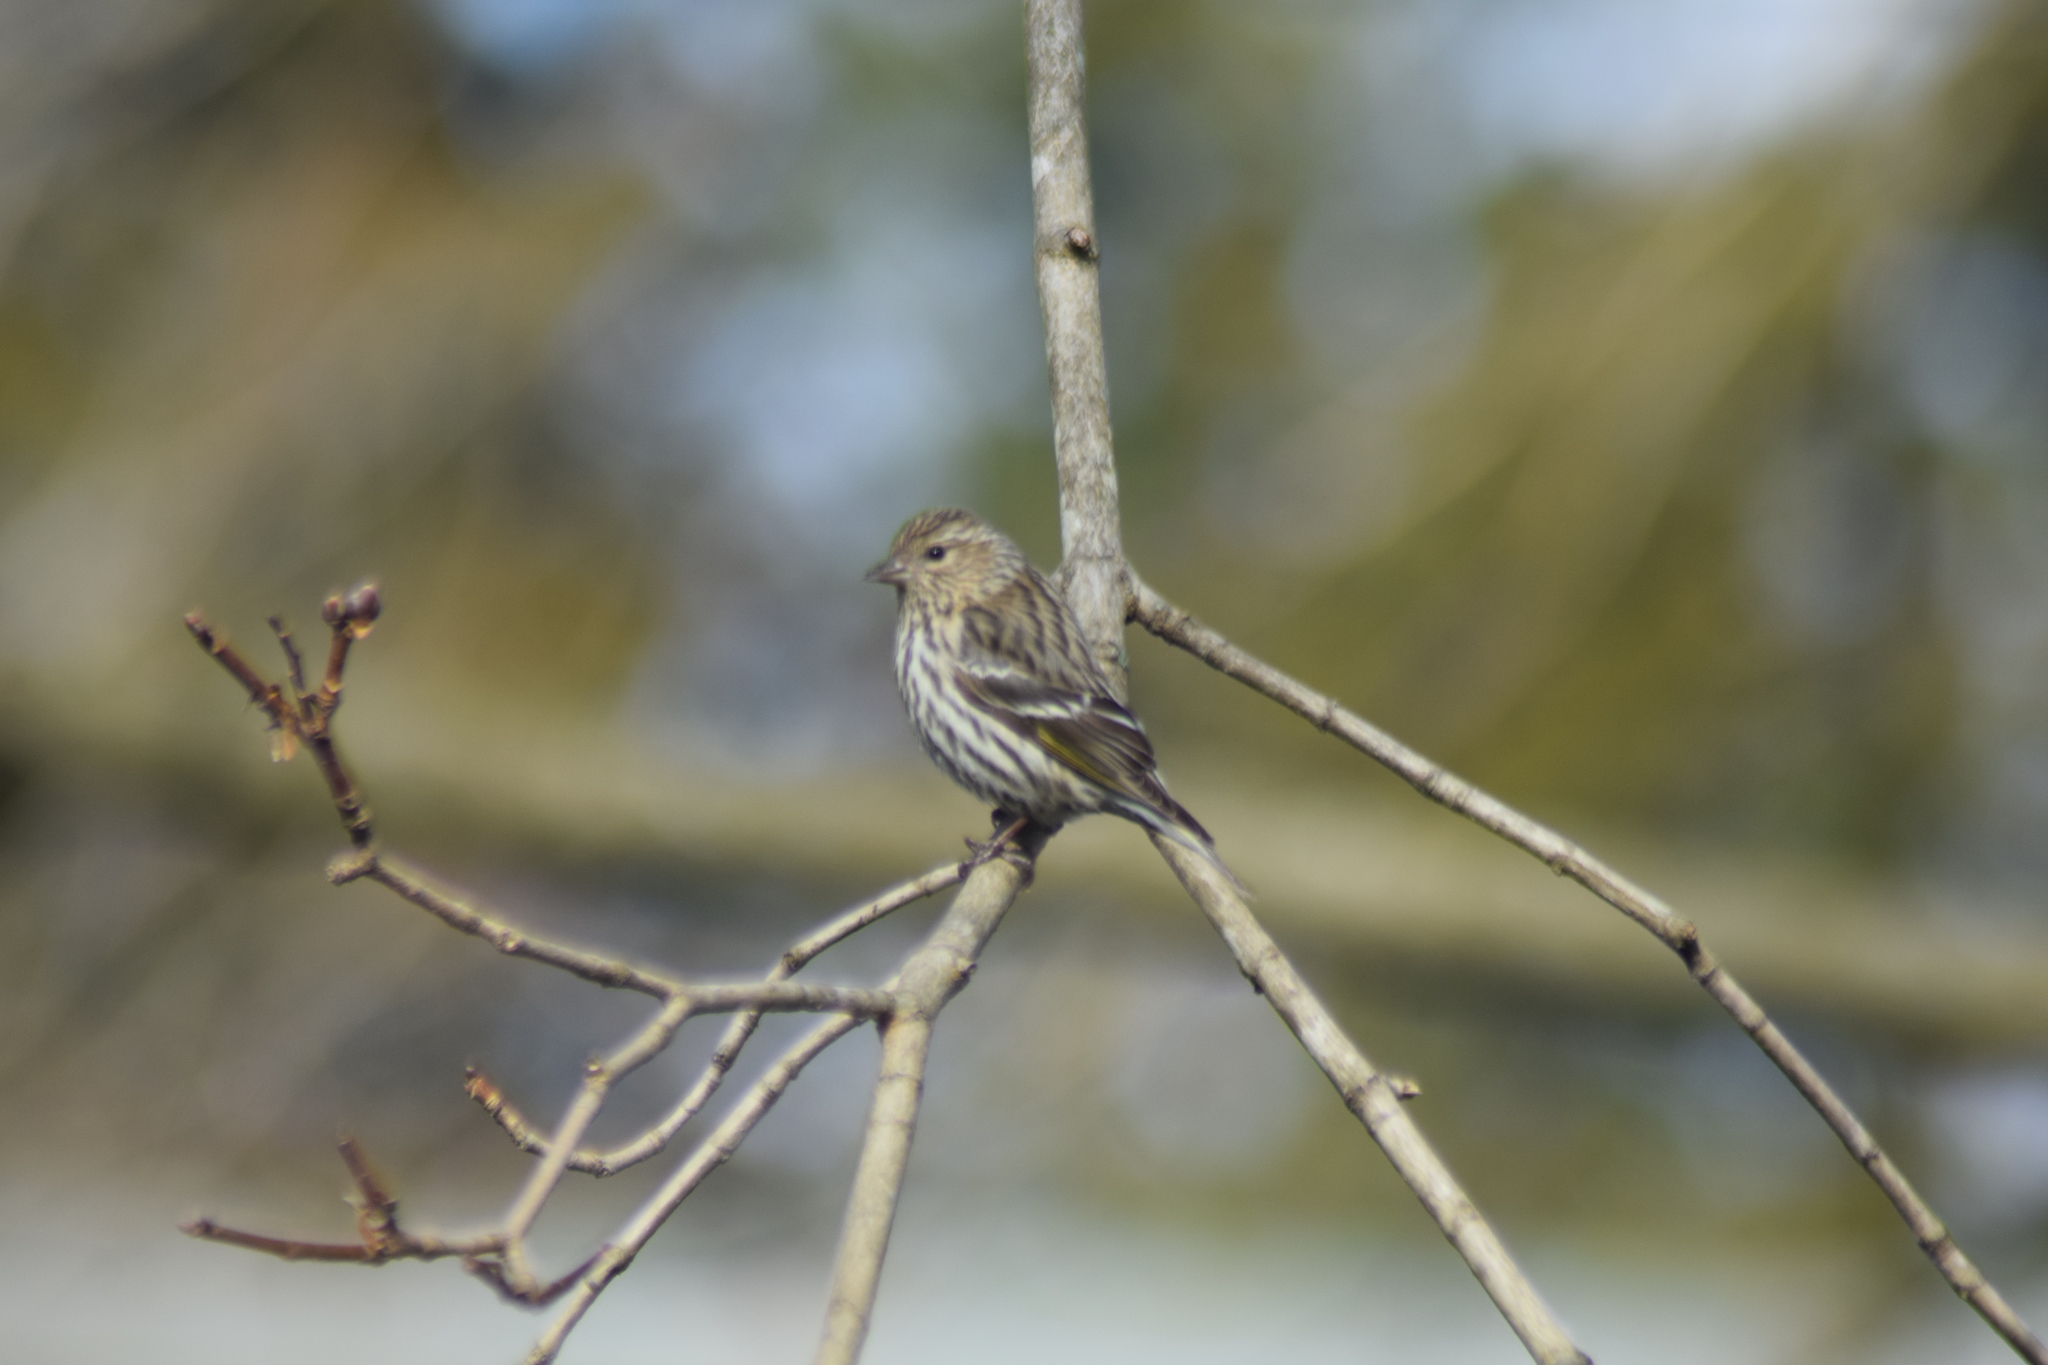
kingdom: Animalia
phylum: Chordata
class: Aves
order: Passeriformes
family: Fringillidae
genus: Spinus
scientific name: Spinus pinus
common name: Pine siskin
